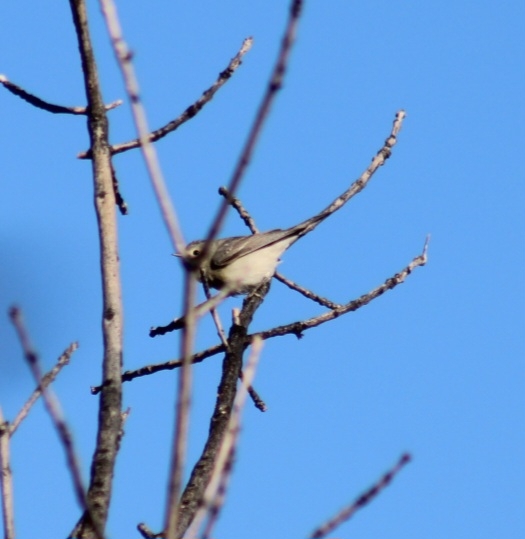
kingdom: Animalia
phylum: Chordata
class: Aves
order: Passeriformes
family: Parulidae
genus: Leiothlypis
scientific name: Leiothlypis luciae
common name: Lucy's warbler
